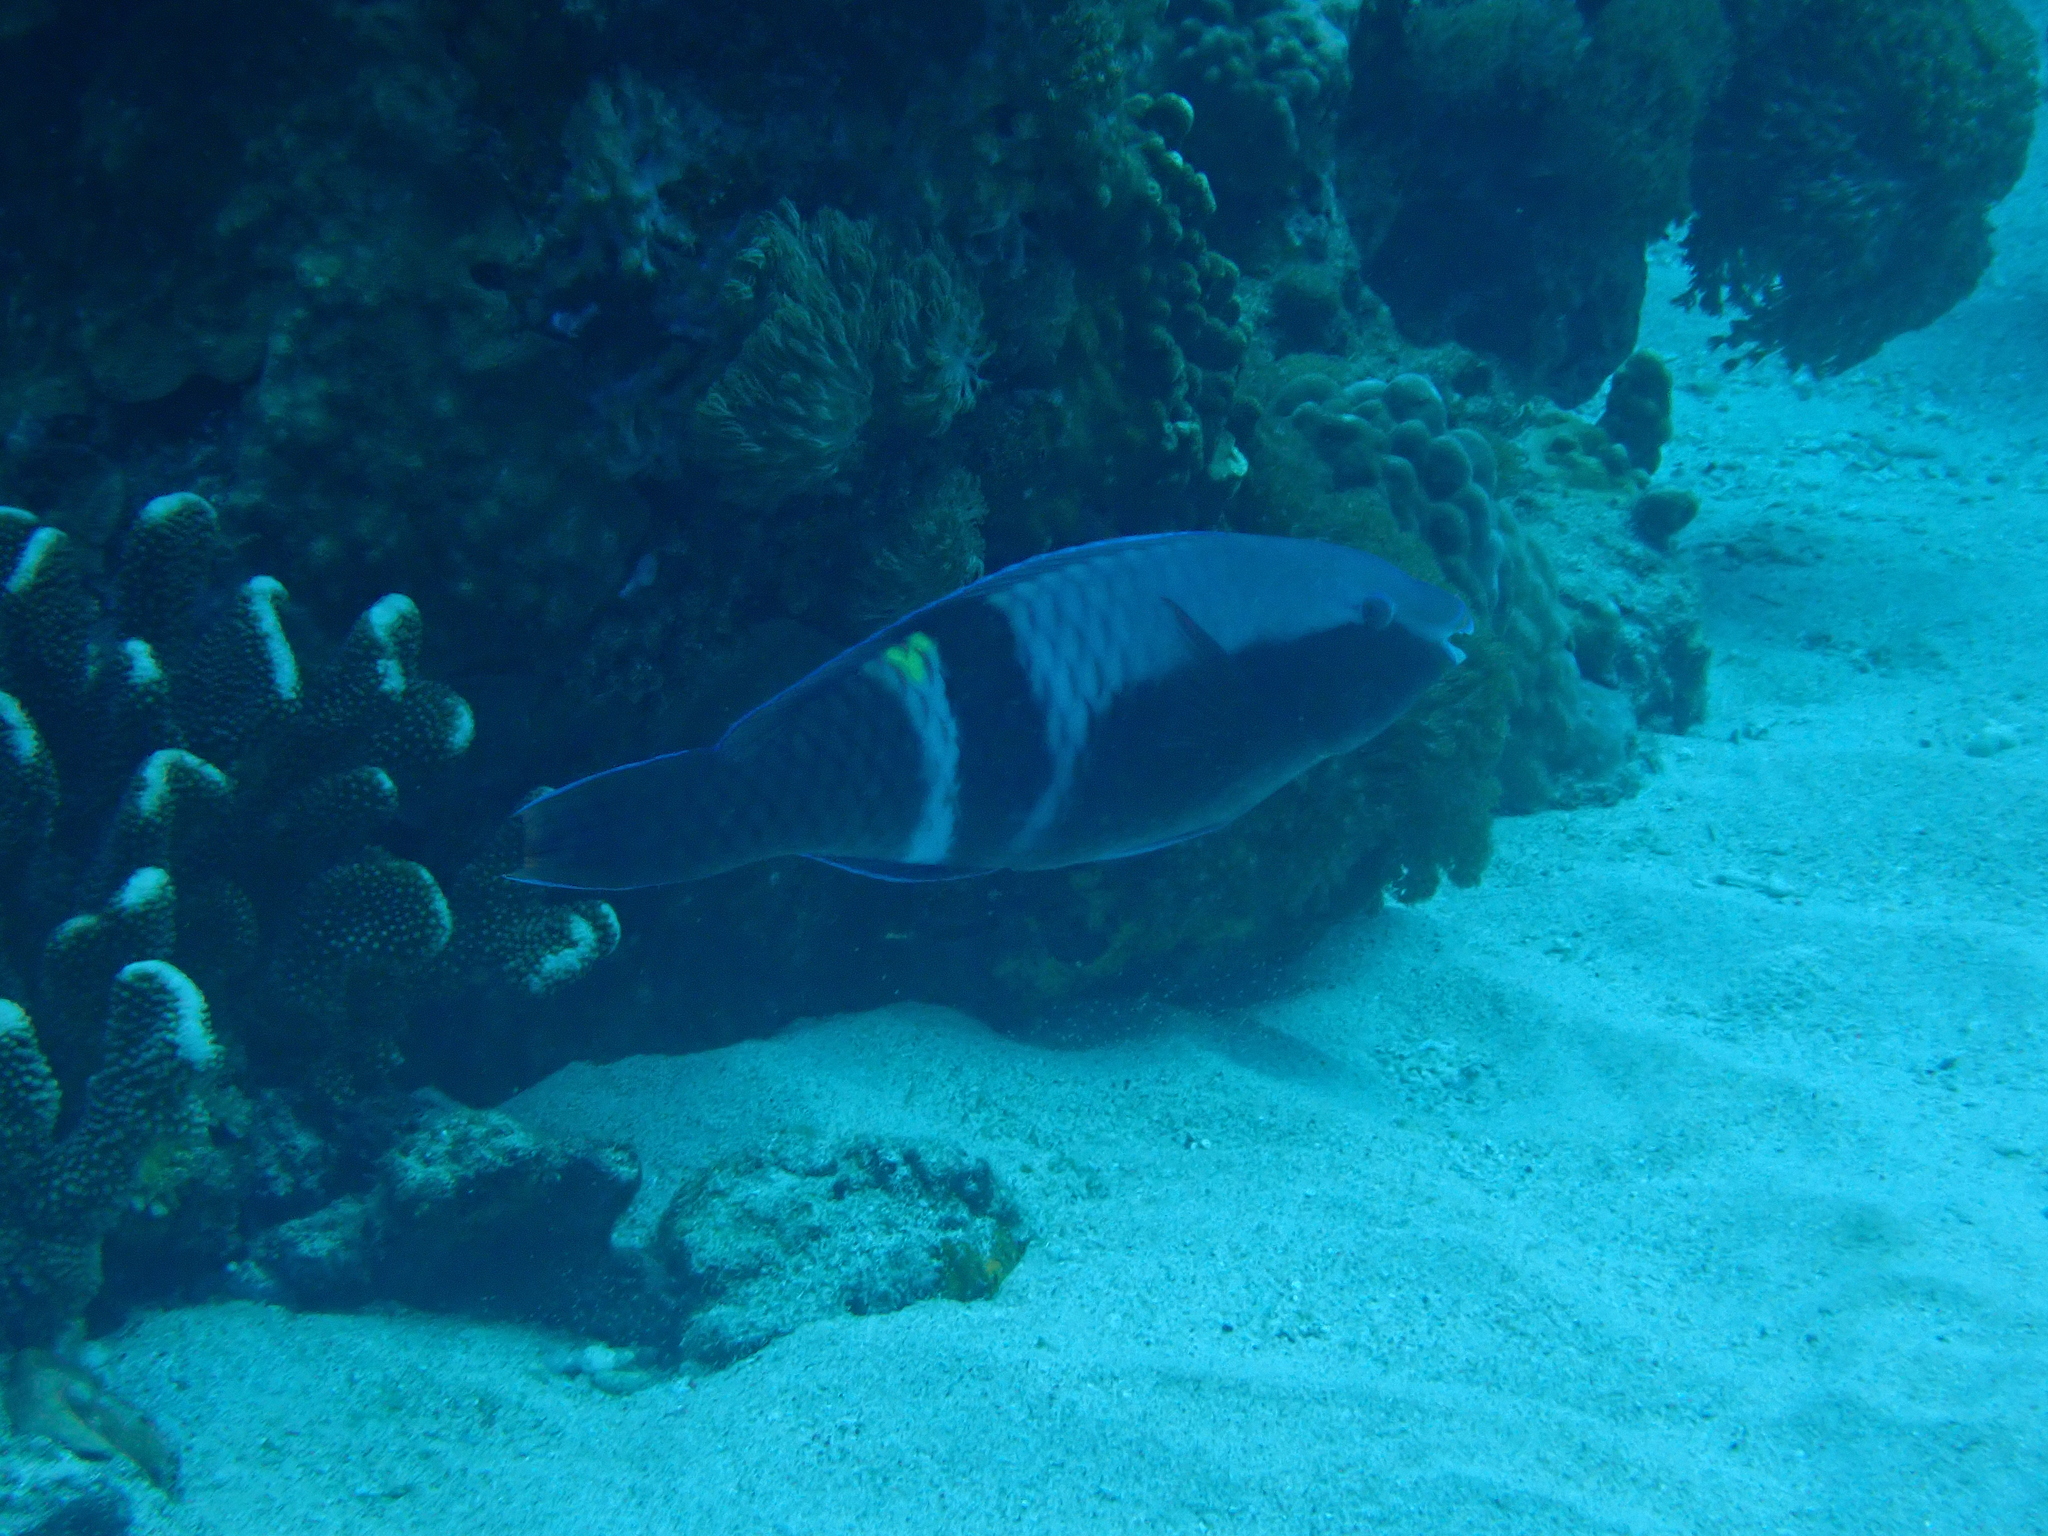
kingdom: Animalia
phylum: Chordata
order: Perciformes
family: Scaridae
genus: Scarus
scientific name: Scarus schlegeli
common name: Schlegel's parrotfish
